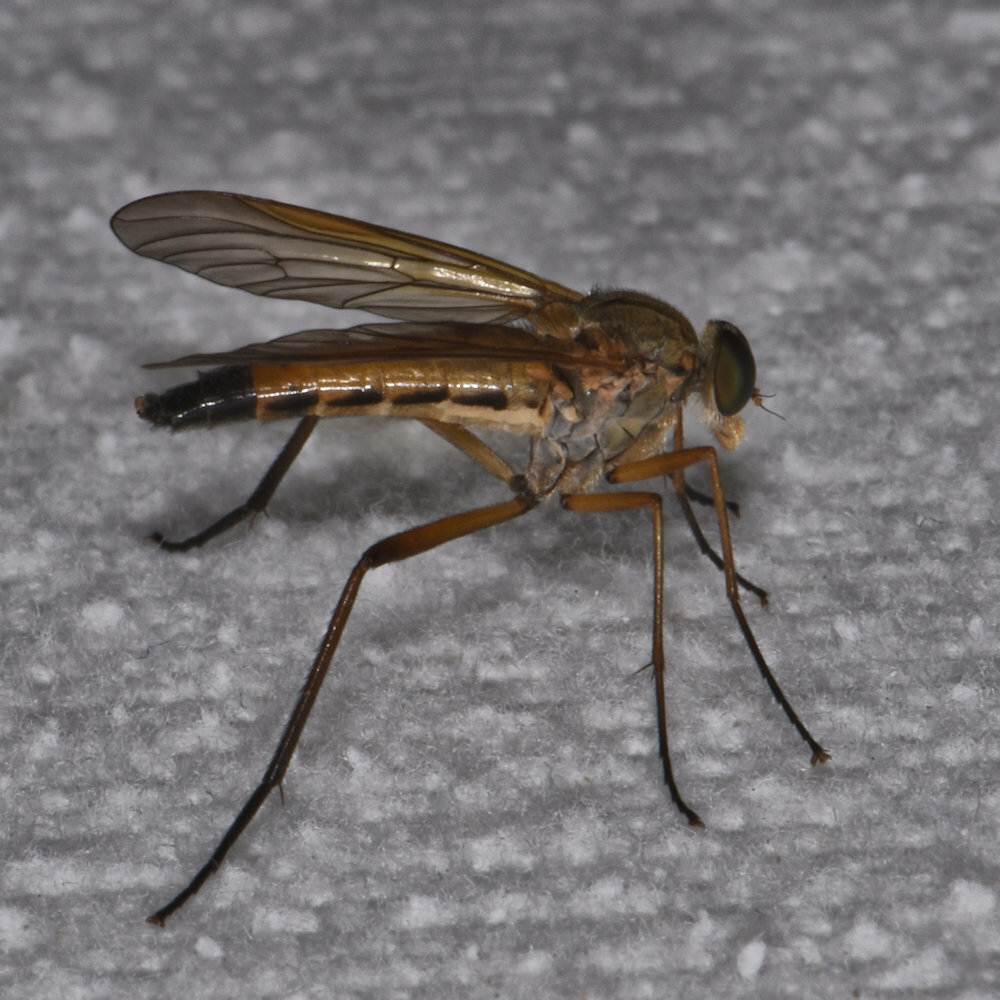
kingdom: Animalia
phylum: Arthropoda
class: Insecta
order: Diptera
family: Rhagionidae
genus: Rhagio
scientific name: Rhagio tringaria
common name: Marsh snipefly
